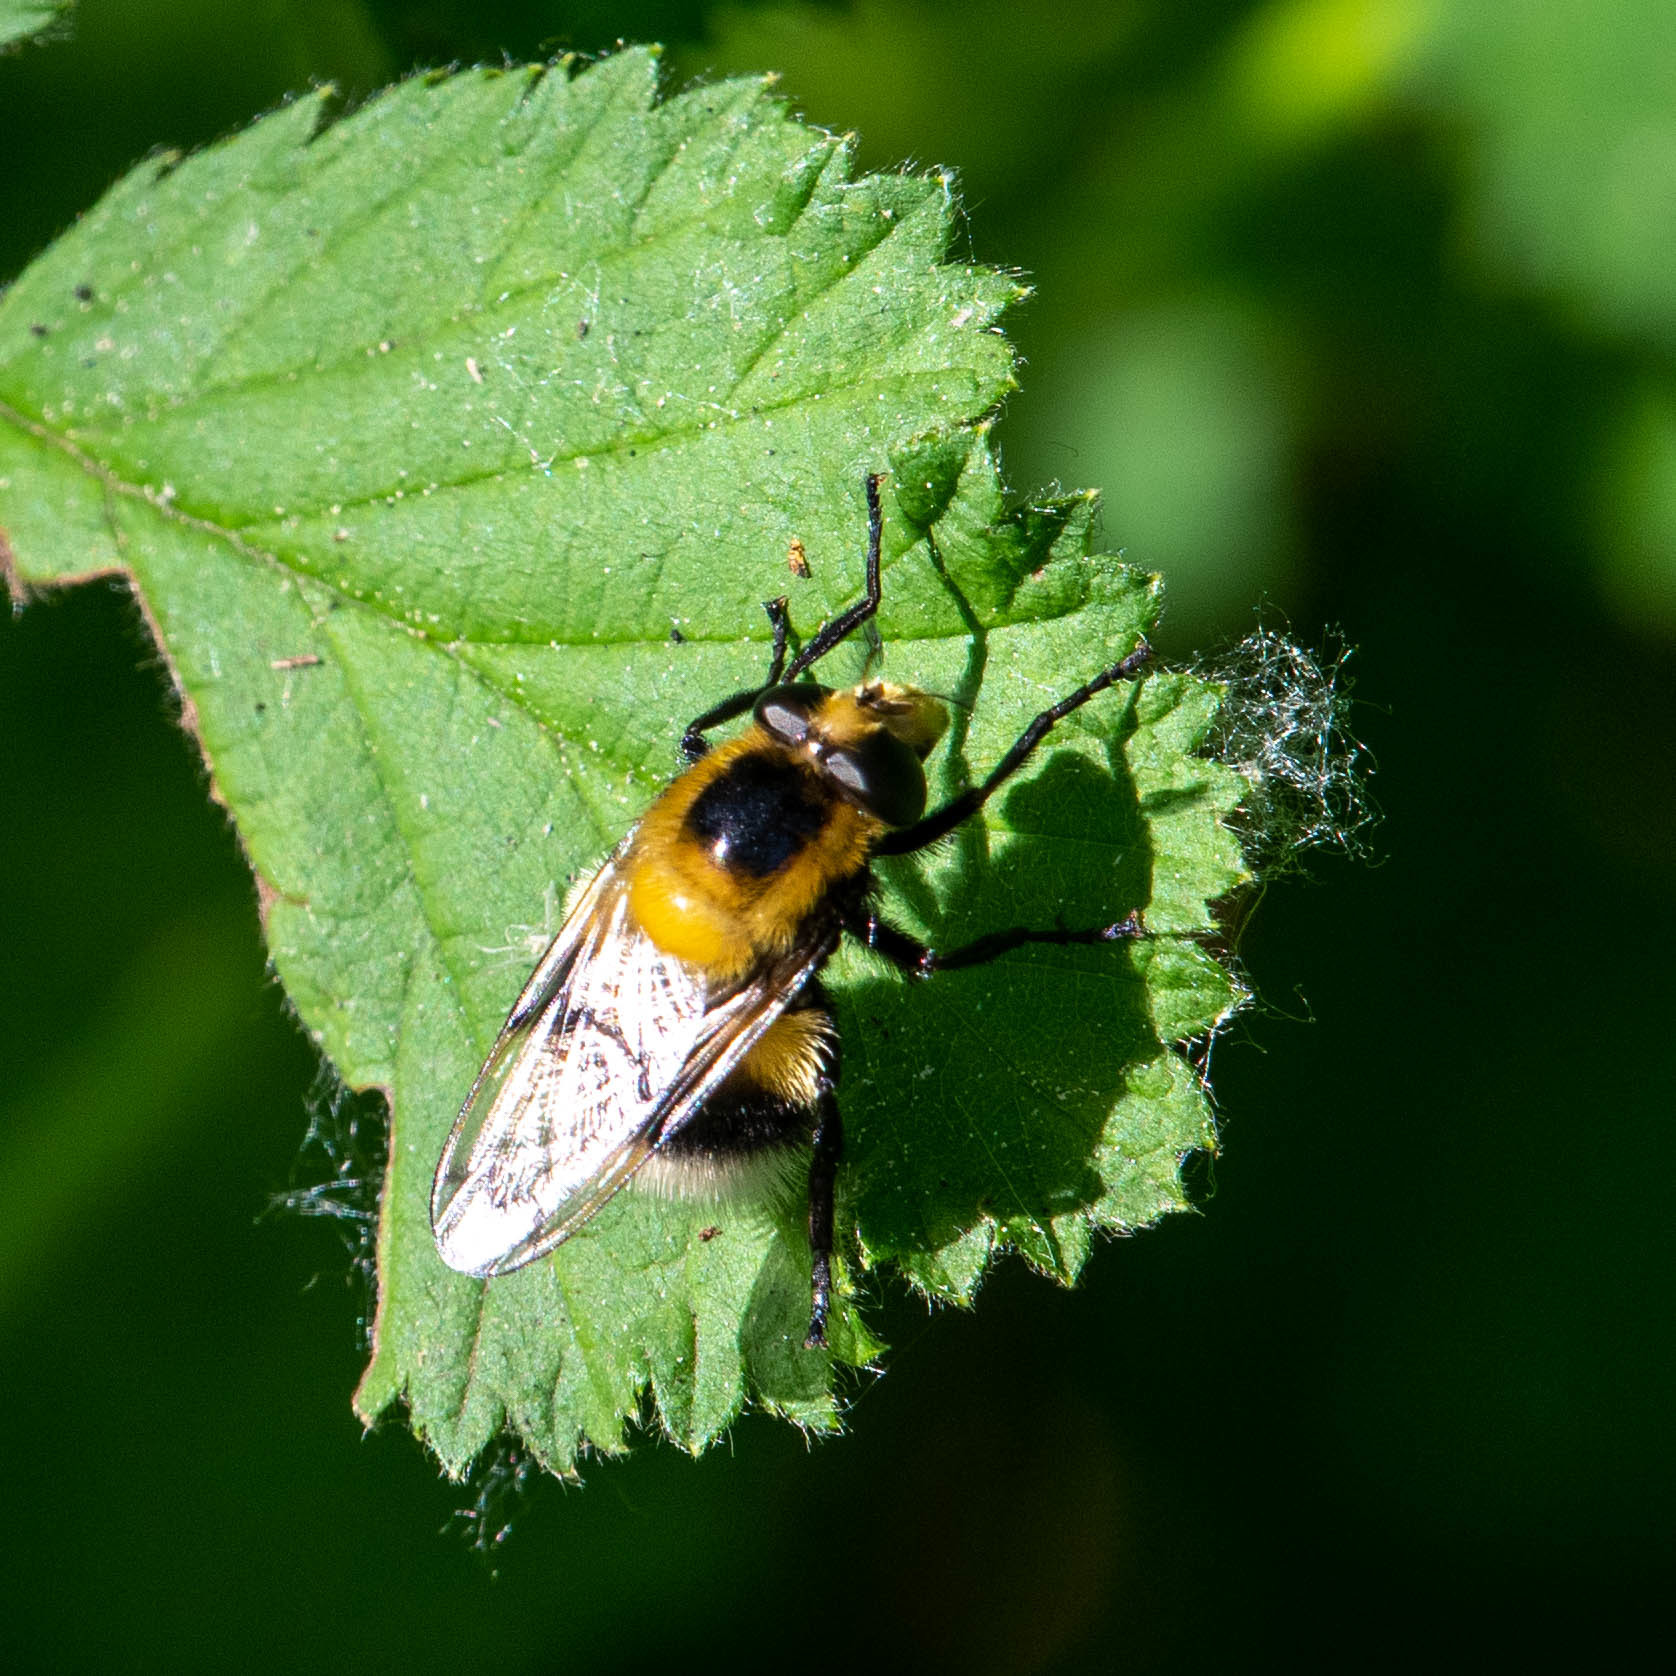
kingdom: Animalia
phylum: Arthropoda
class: Insecta
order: Diptera
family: Syrphidae
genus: Volucella
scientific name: Volucella bombylans
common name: Bumble bee hover fly
